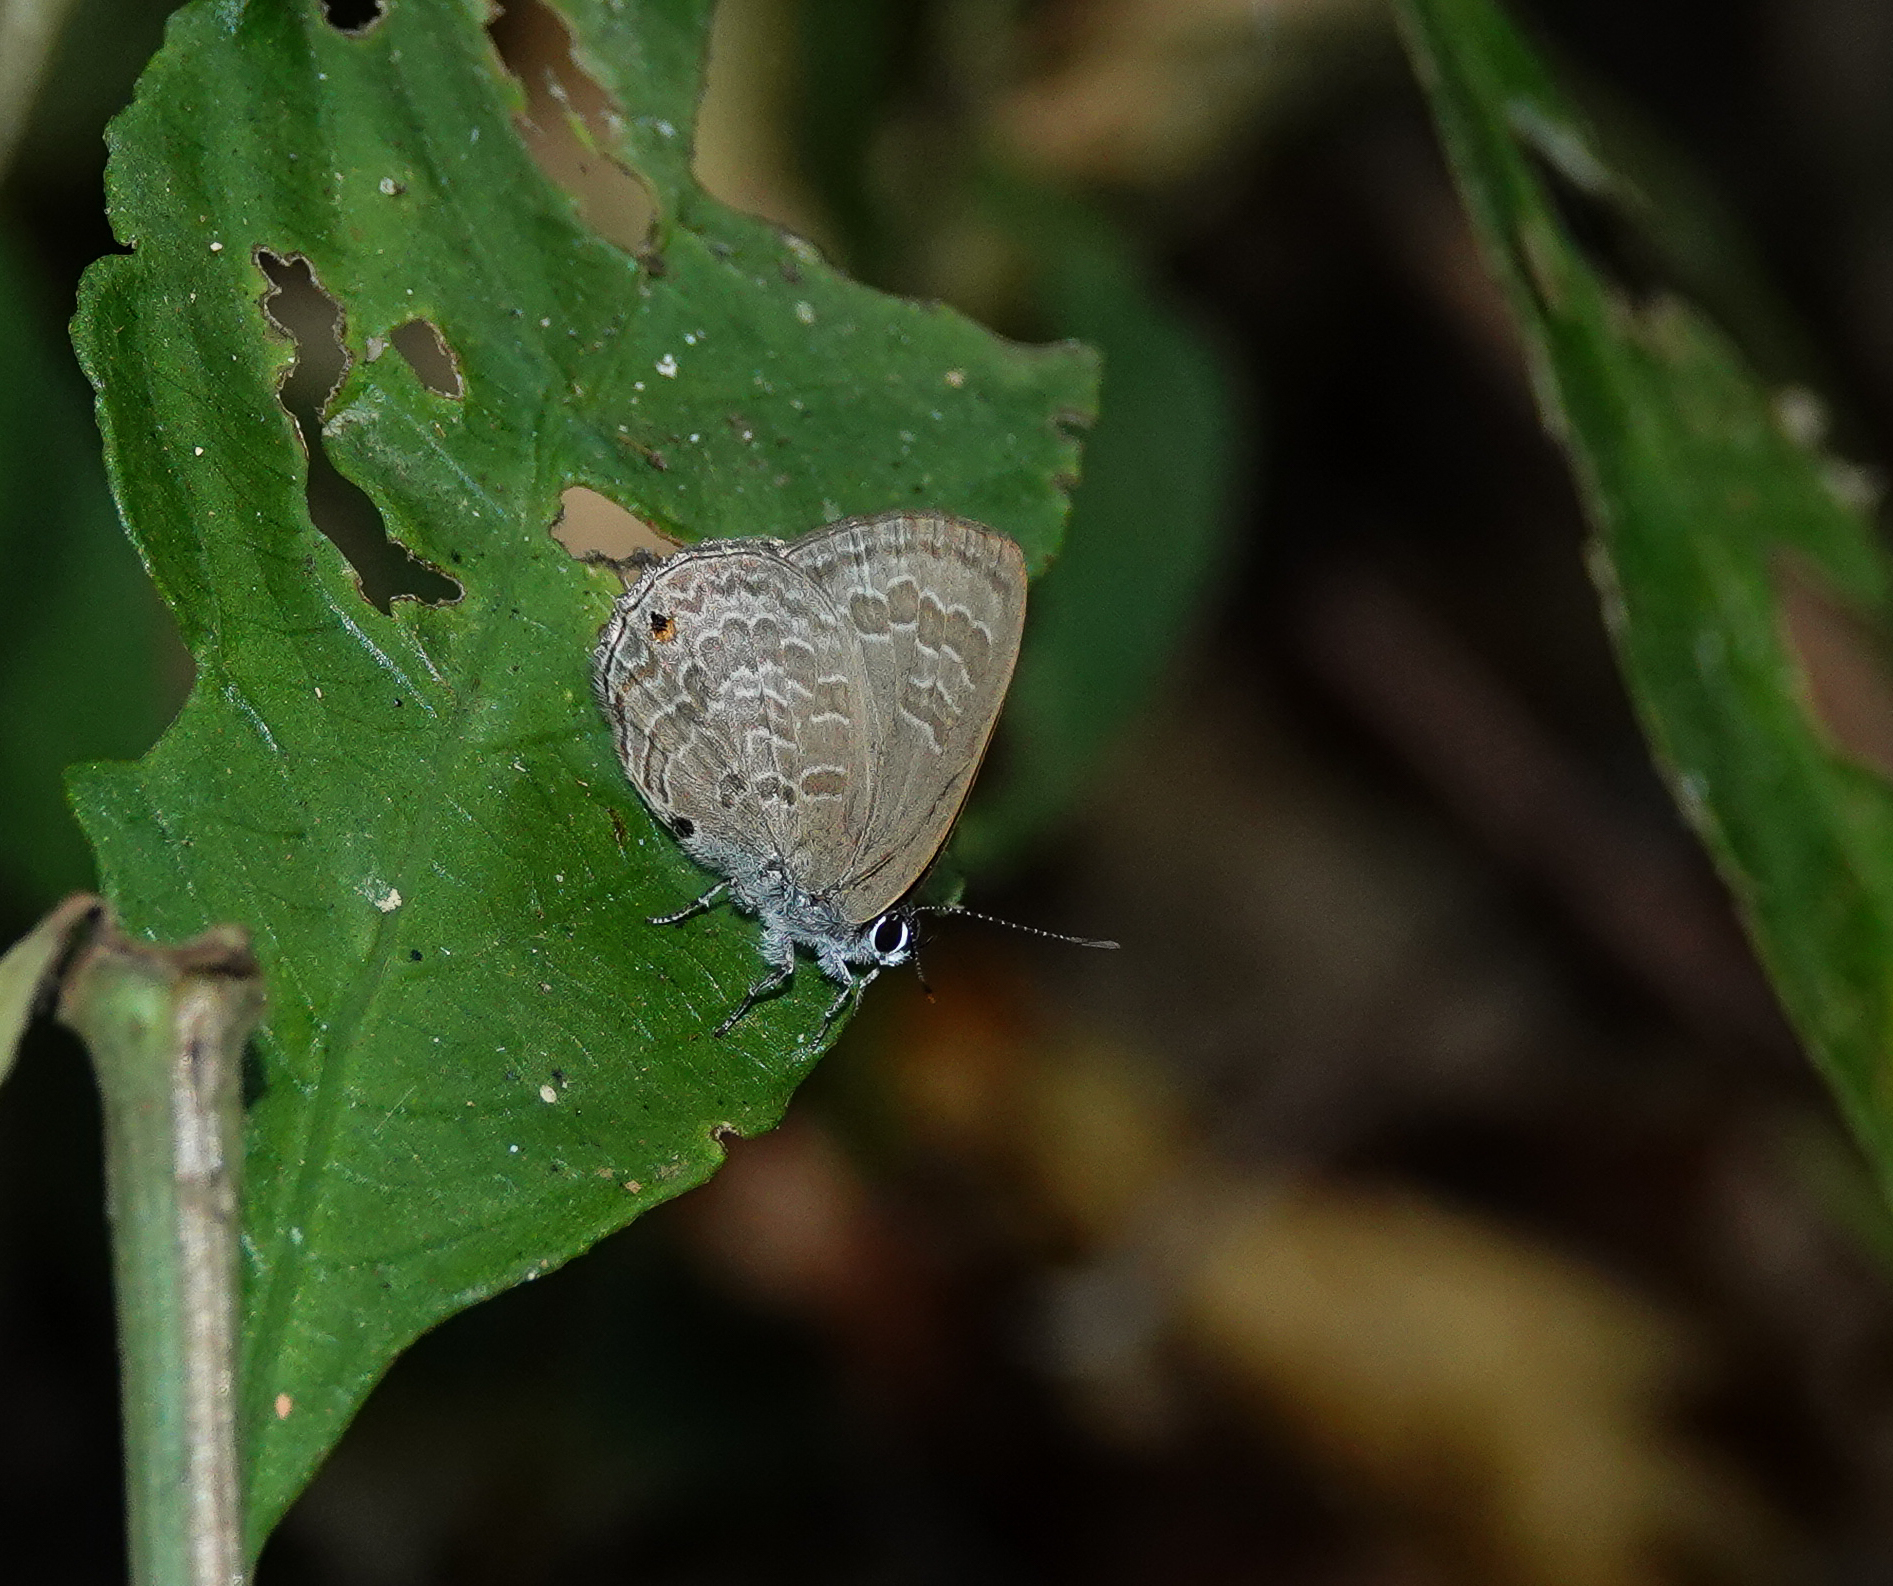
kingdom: Animalia
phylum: Arthropoda
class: Insecta
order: Lepidoptera
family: Lycaenidae
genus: Anthene
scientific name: Anthene emolus
